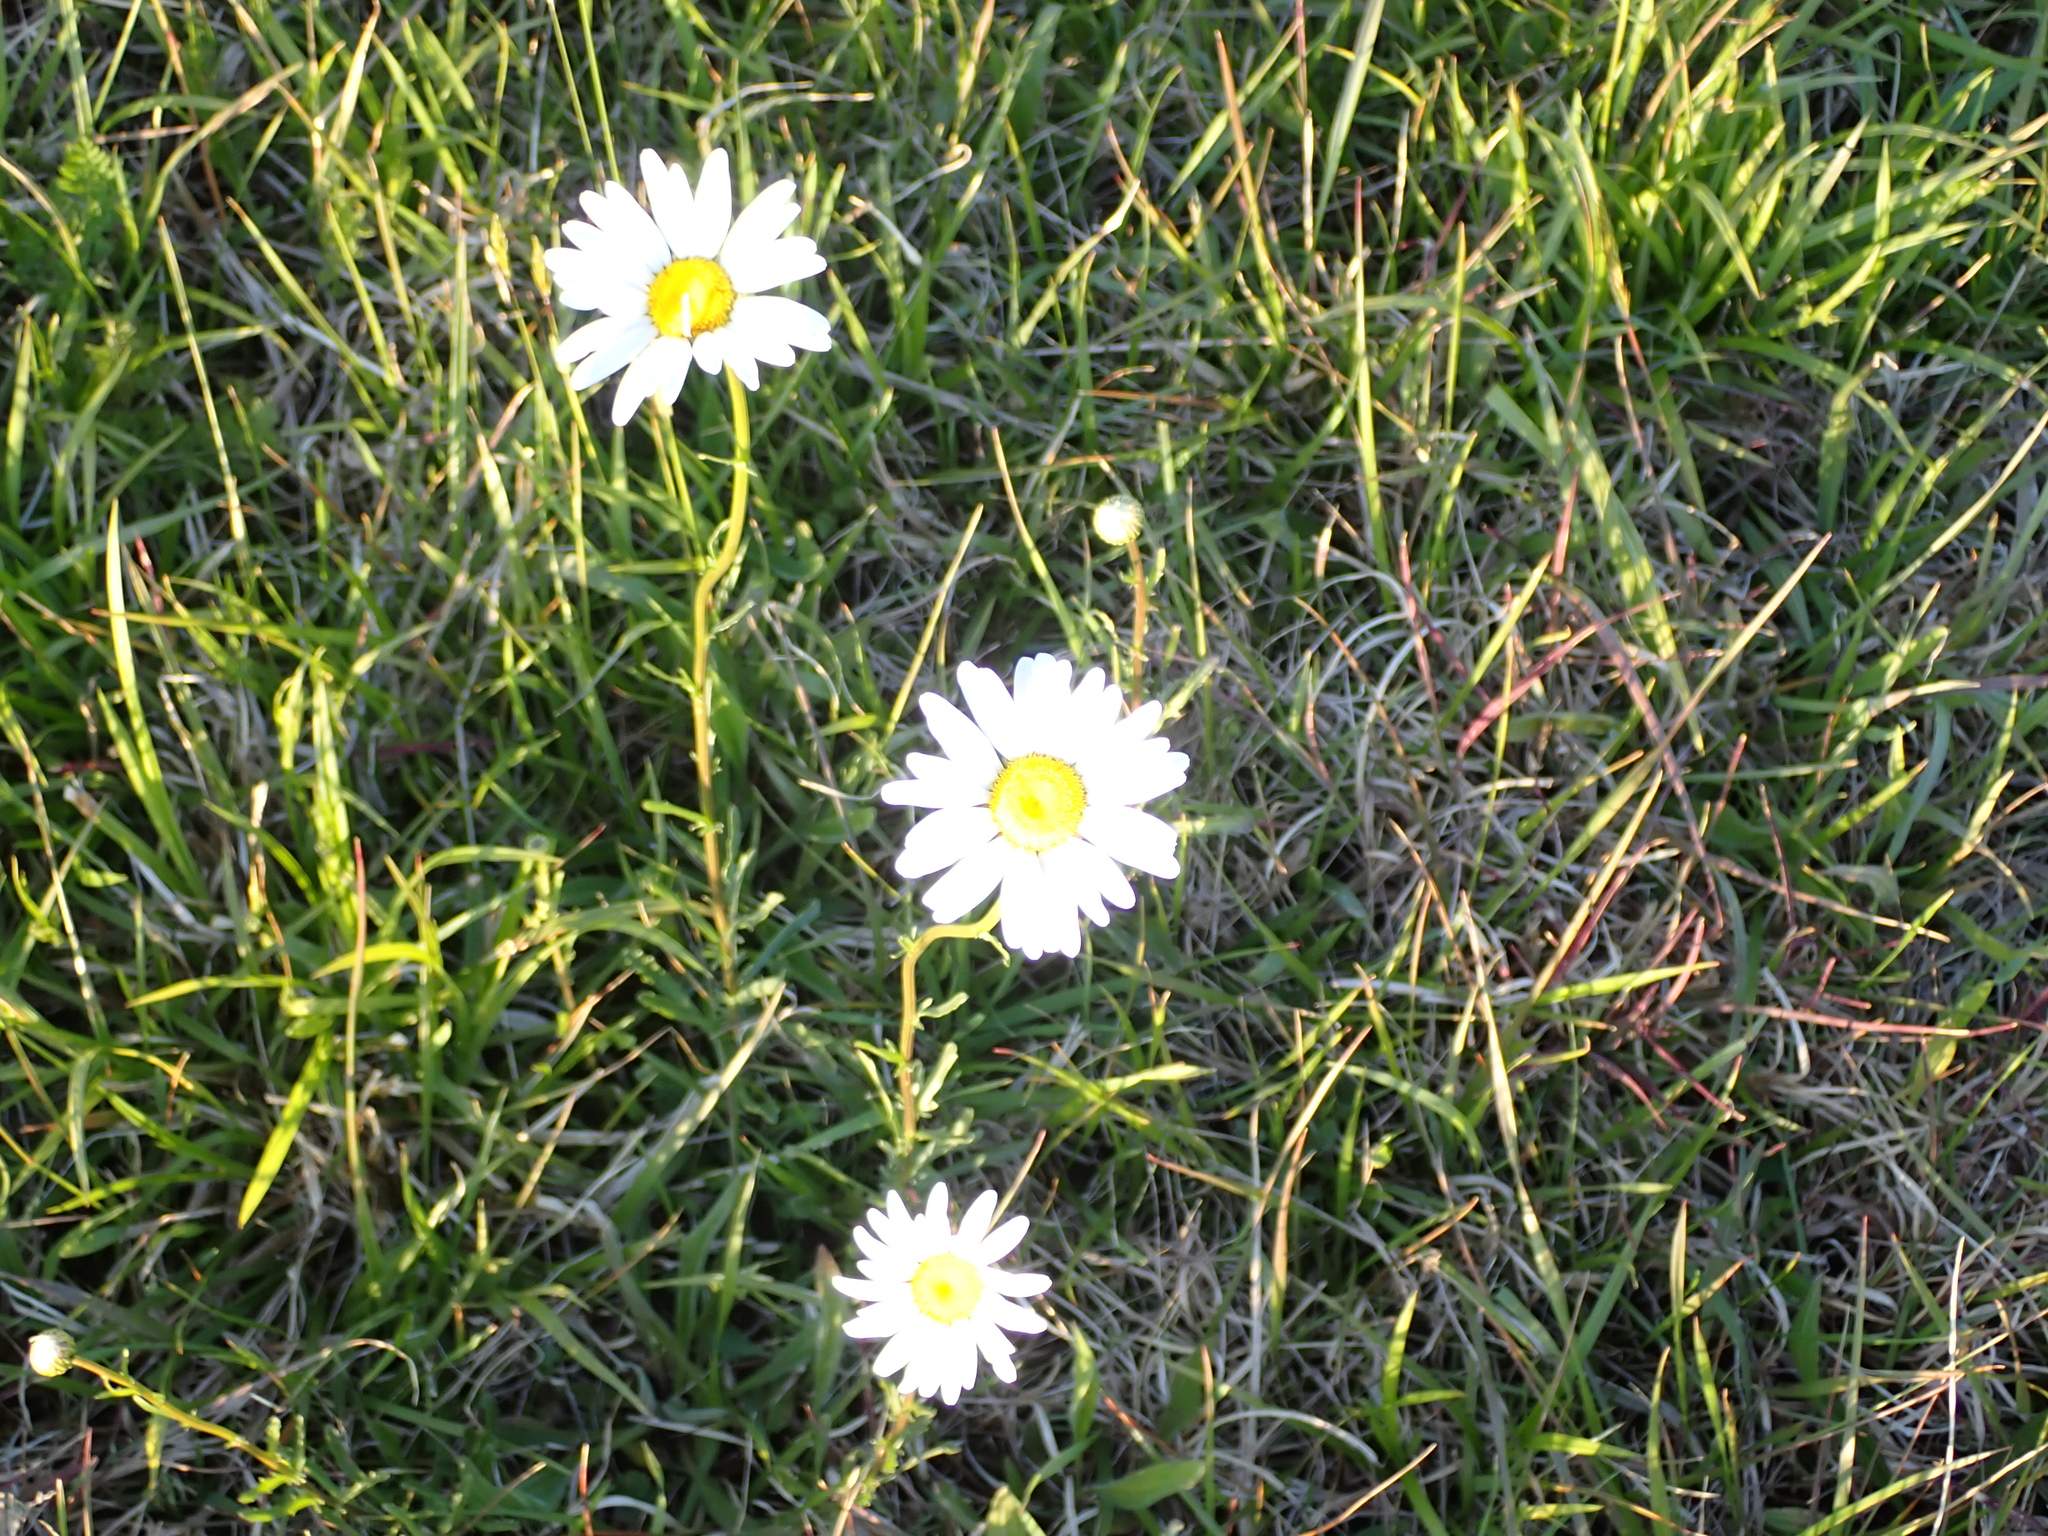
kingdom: Plantae
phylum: Tracheophyta
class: Magnoliopsida
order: Asterales
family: Asteraceae
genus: Leucanthemum
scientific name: Leucanthemum vulgare
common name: Oxeye daisy
